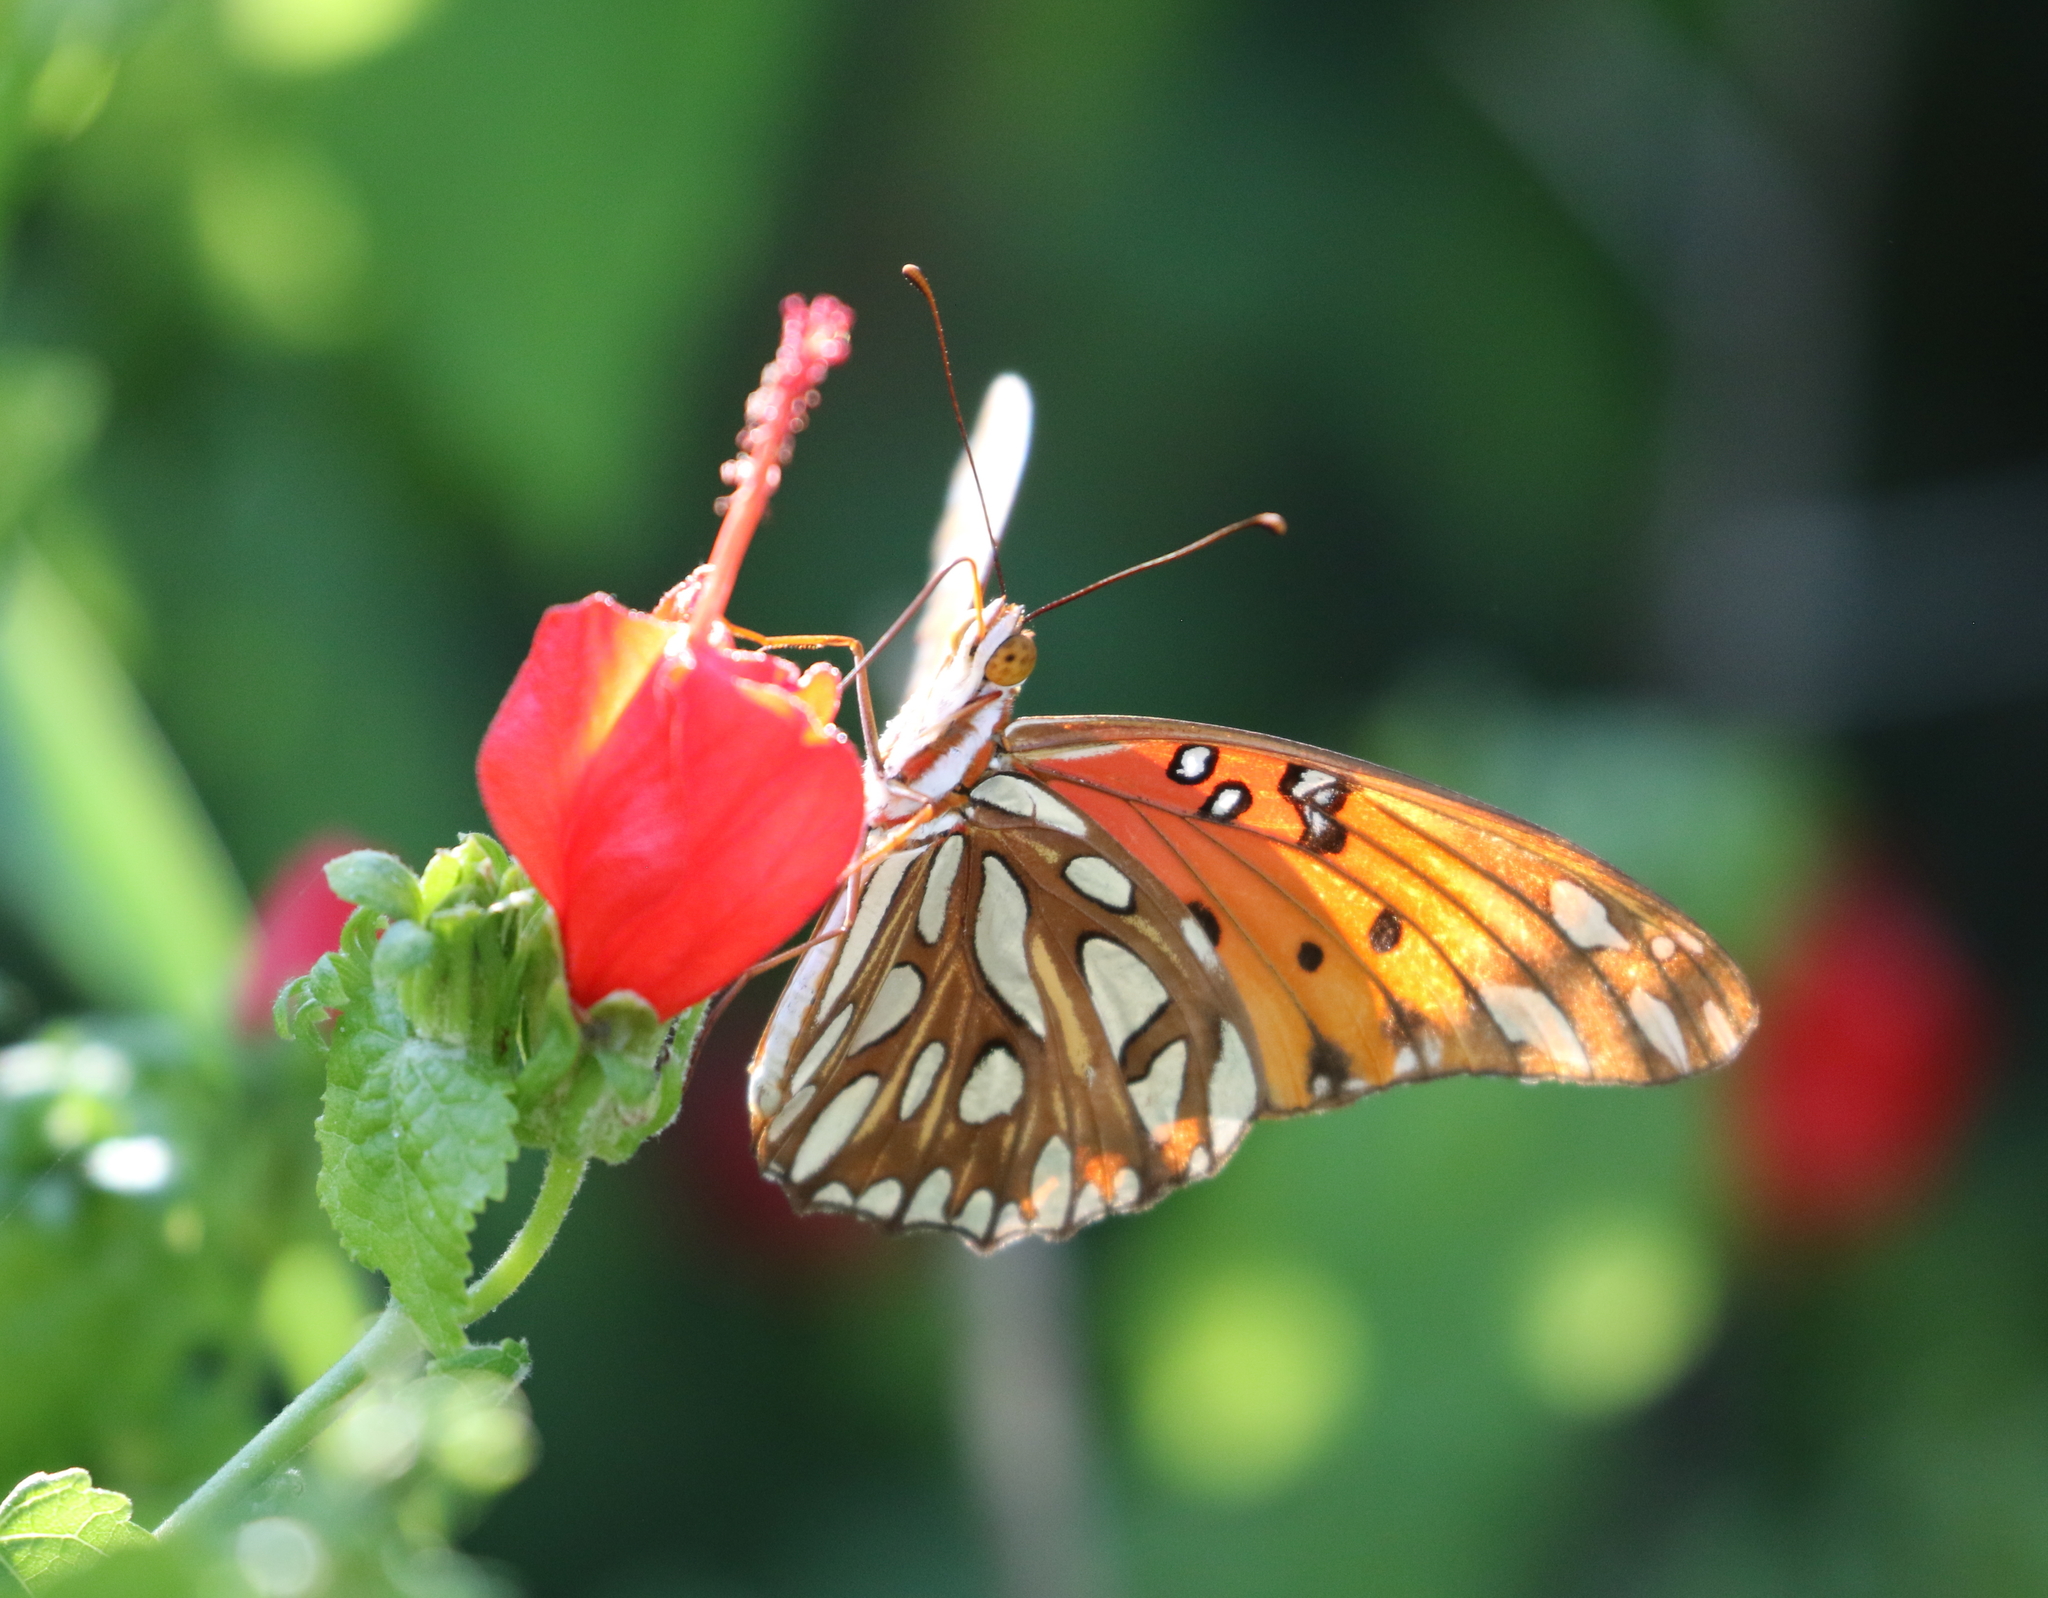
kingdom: Animalia
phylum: Arthropoda
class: Insecta
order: Lepidoptera
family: Nymphalidae
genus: Dione
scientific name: Dione vanillae
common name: Gulf fritillary
